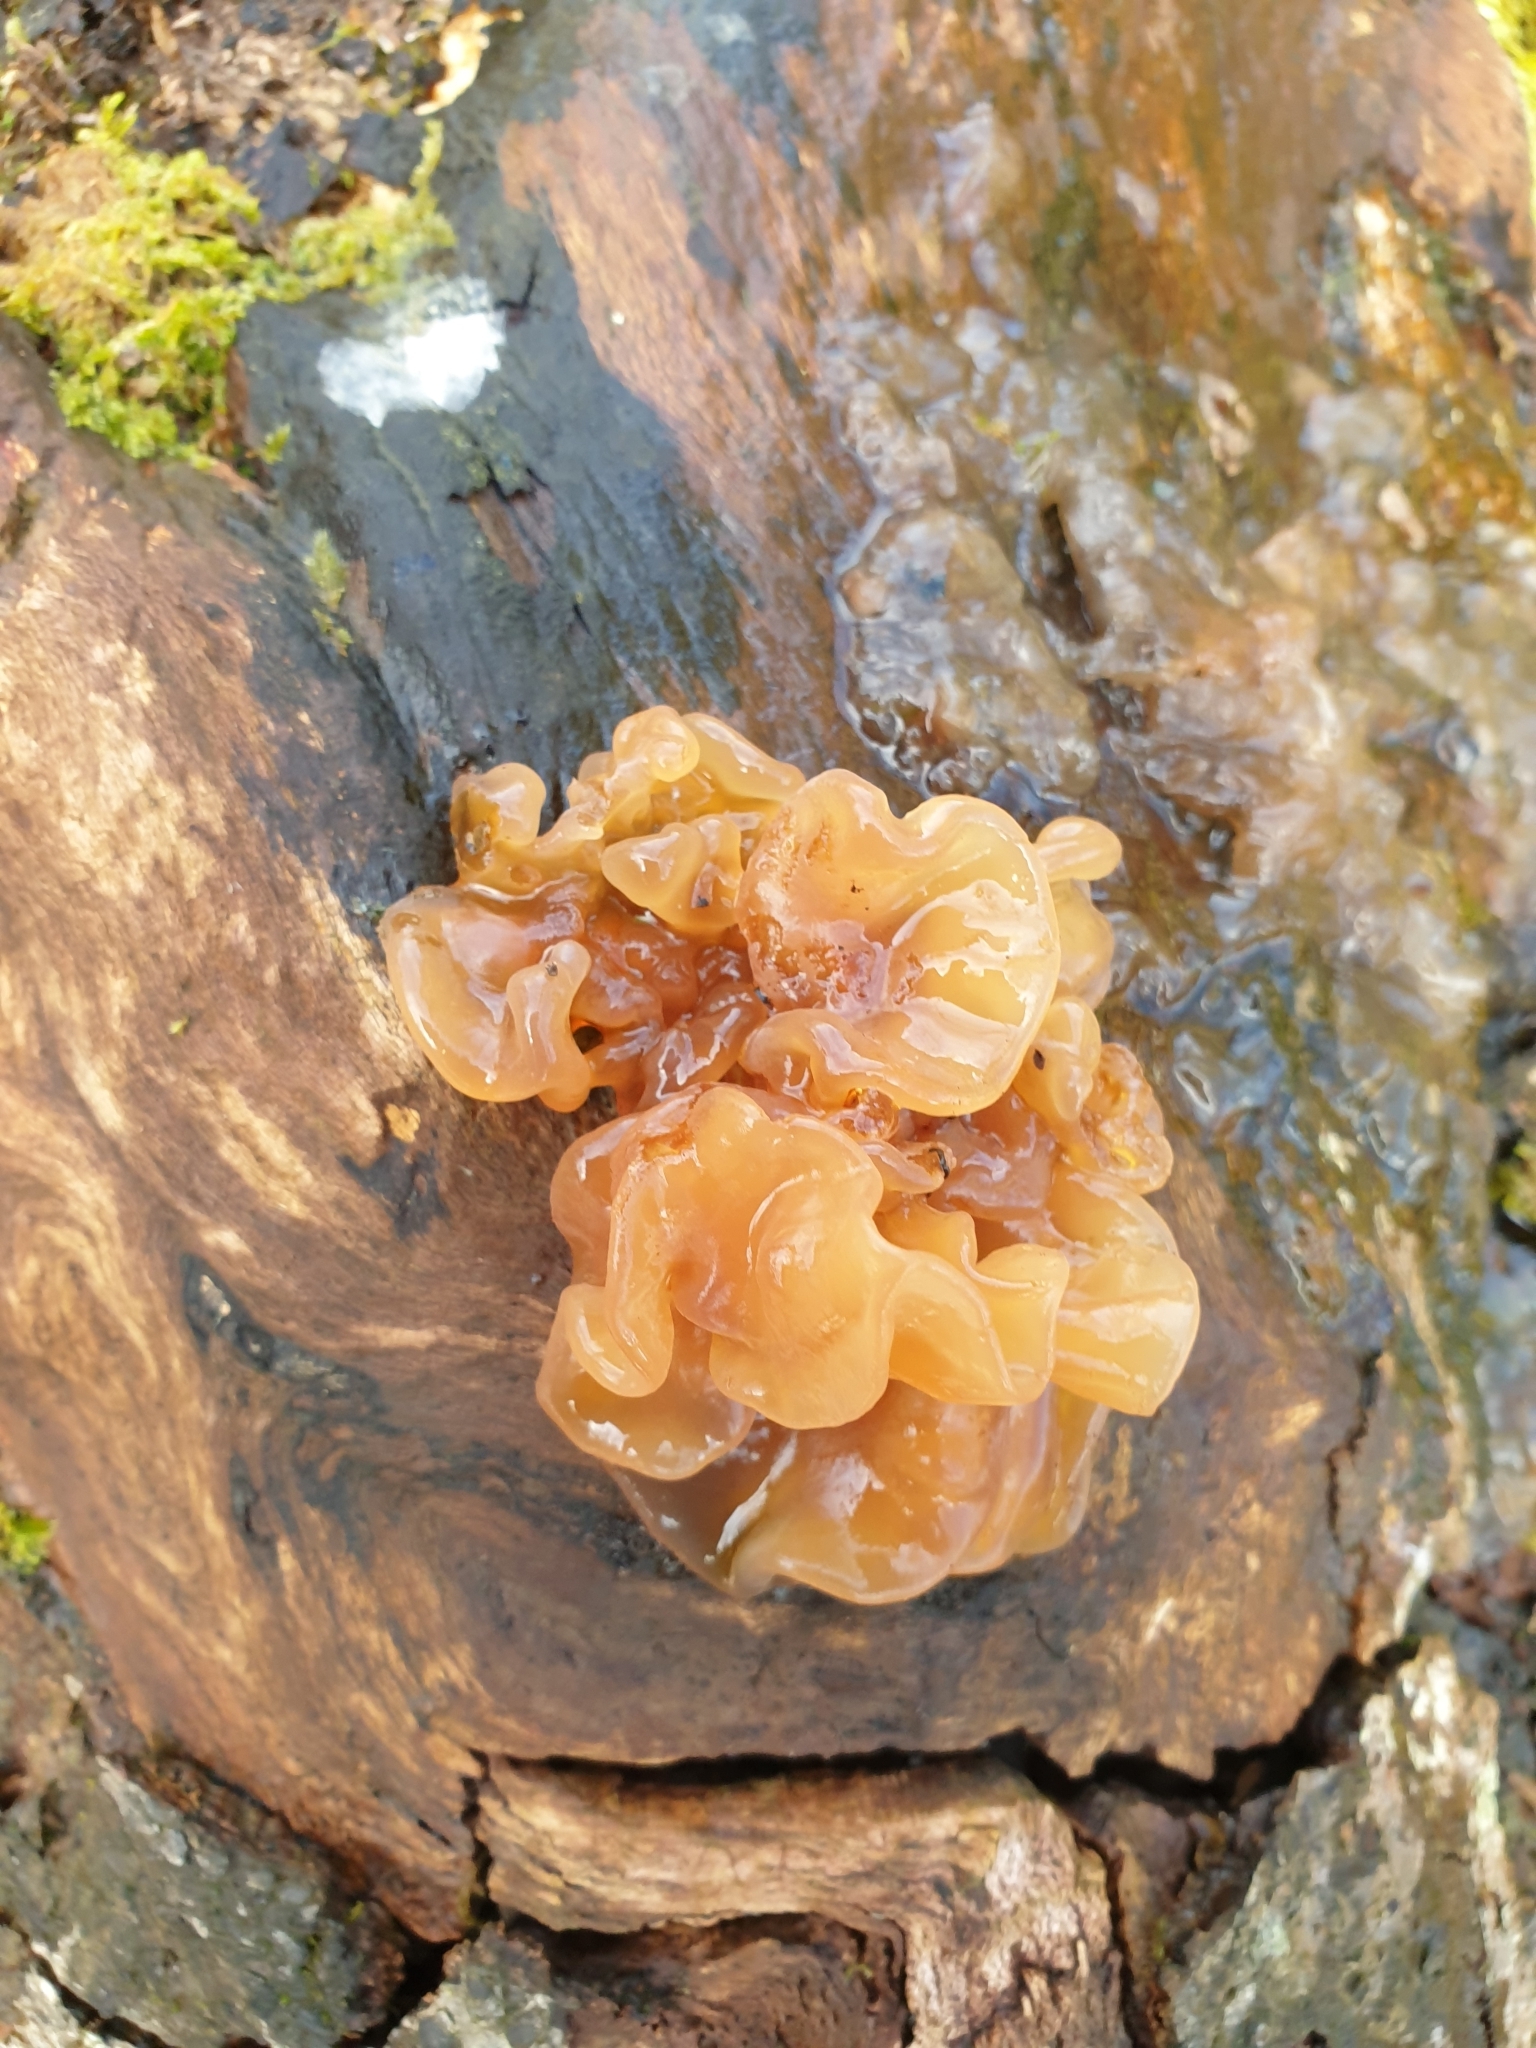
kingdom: Fungi
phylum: Basidiomycota
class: Tremellomycetes
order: Tremellales
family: Tremellaceae
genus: Phaeotremella
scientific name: Phaeotremella frondosa
